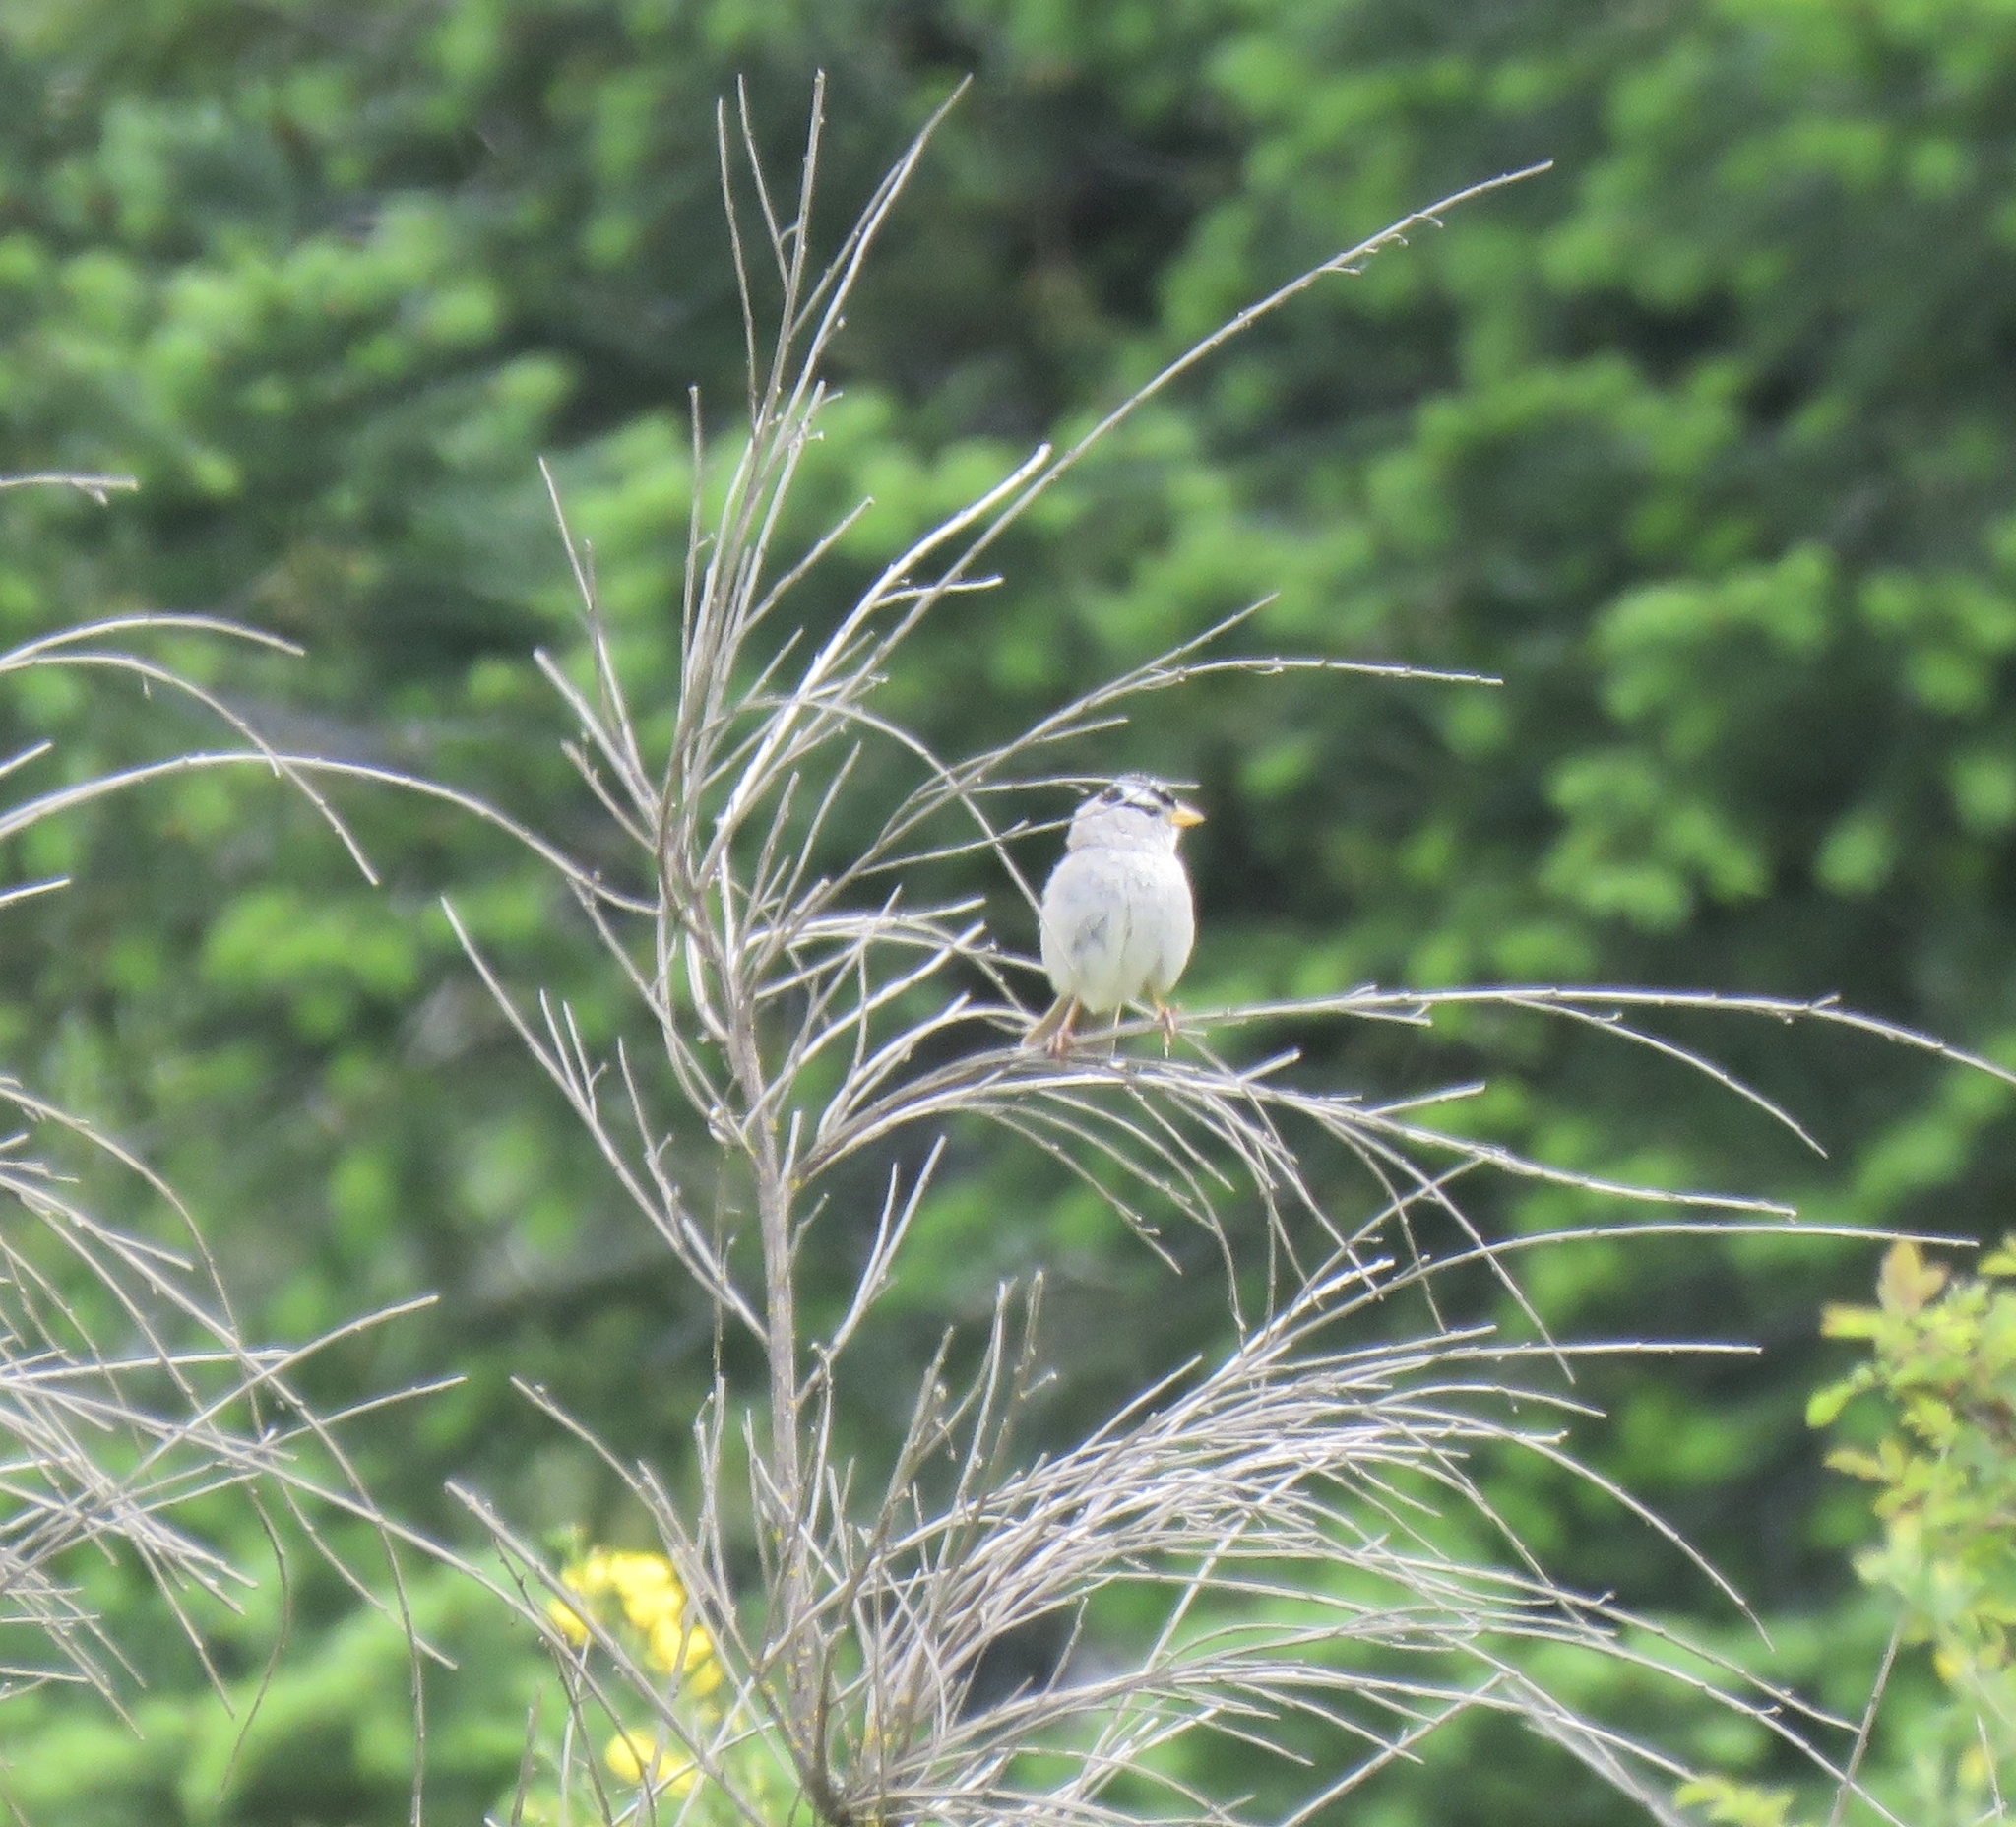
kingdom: Animalia
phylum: Chordata
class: Aves
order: Passeriformes
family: Passerellidae
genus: Zonotrichia
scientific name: Zonotrichia leucophrys
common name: White-crowned sparrow
